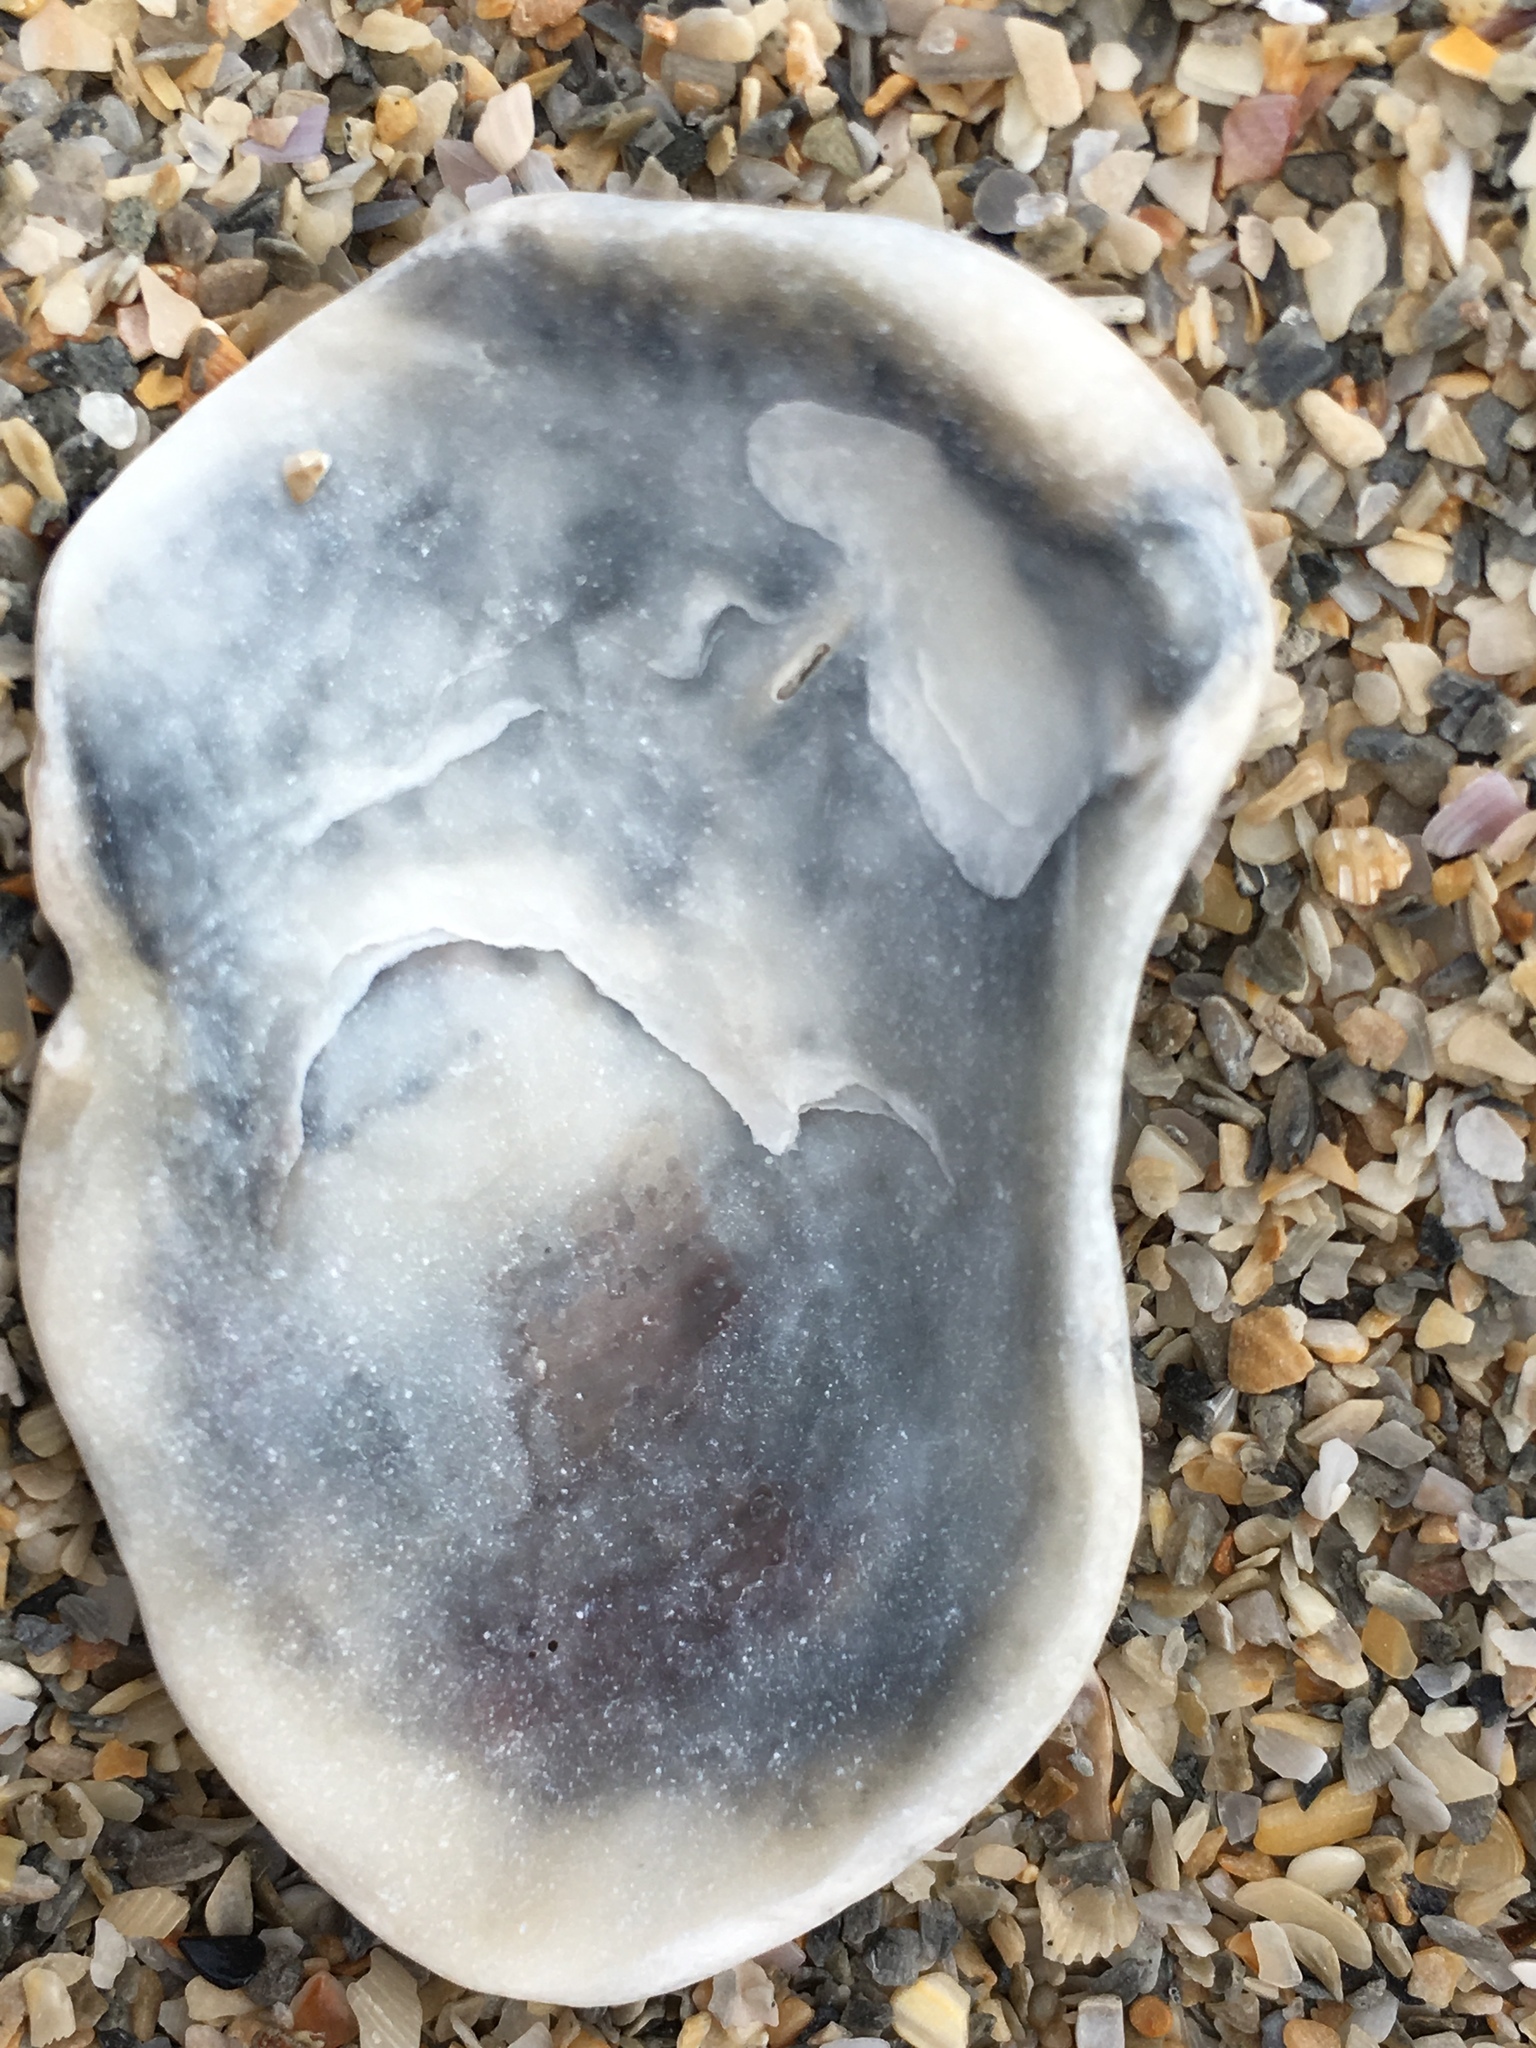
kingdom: Animalia
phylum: Mollusca
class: Bivalvia
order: Ostreida
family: Ostreidae
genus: Crassostrea
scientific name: Crassostrea virginica
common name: American oyster
